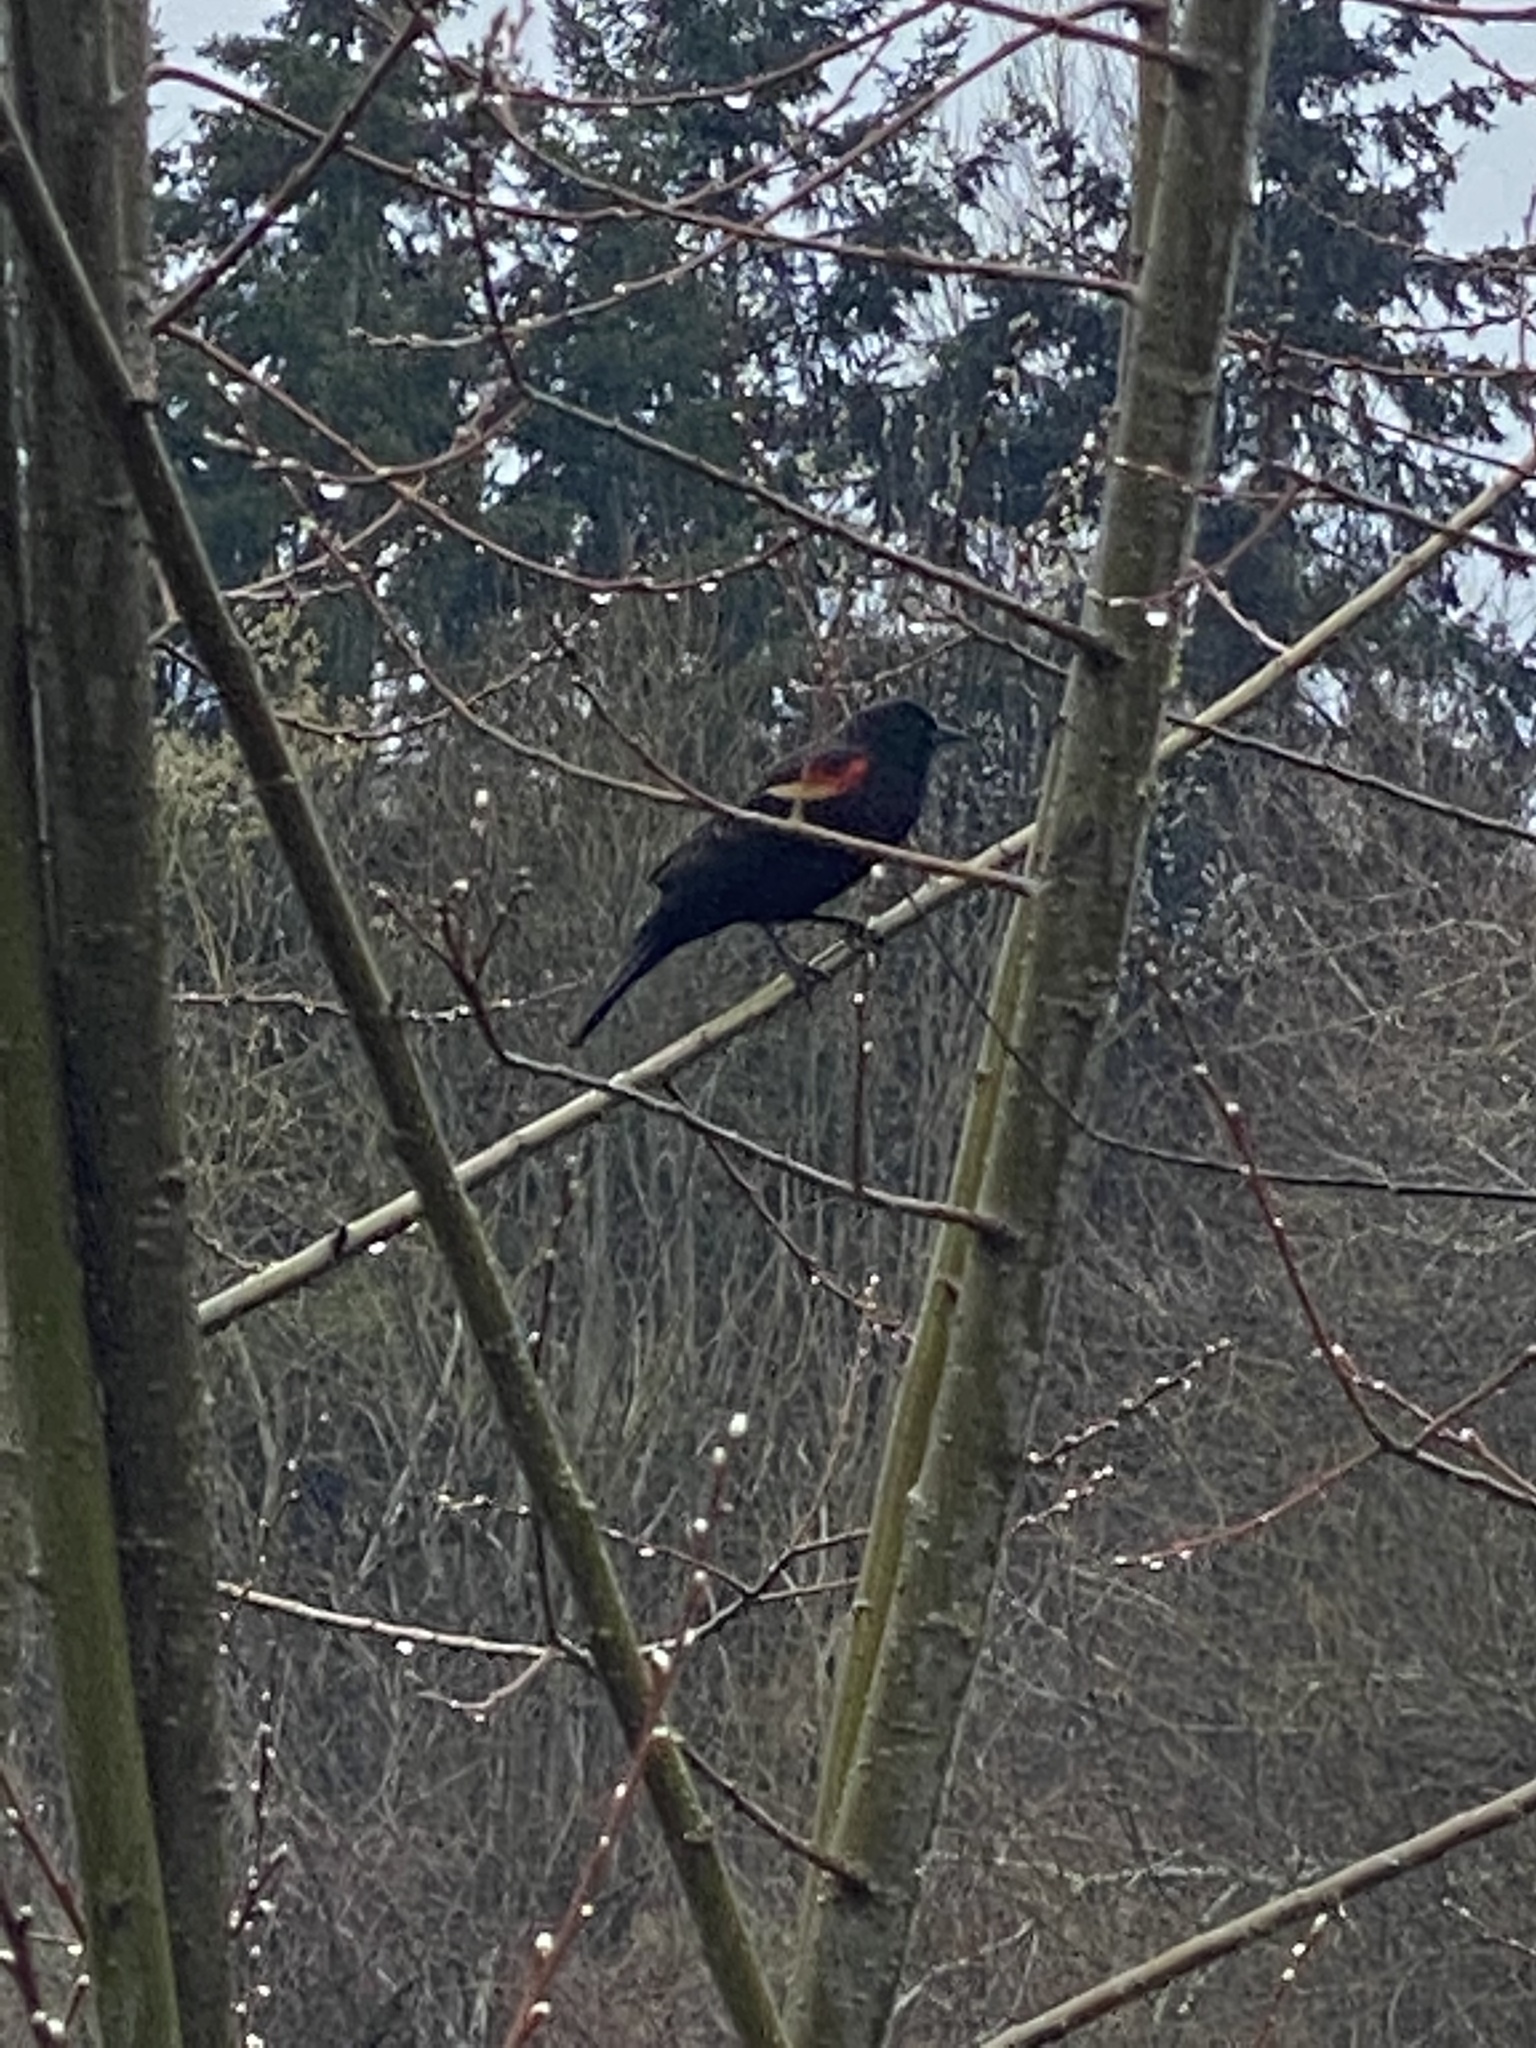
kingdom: Animalia
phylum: Chordata
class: Aves
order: Passeriformes
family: Icteridae
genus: Agelaius
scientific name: Agelaius phoeniceus
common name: Red-winged blackbird
